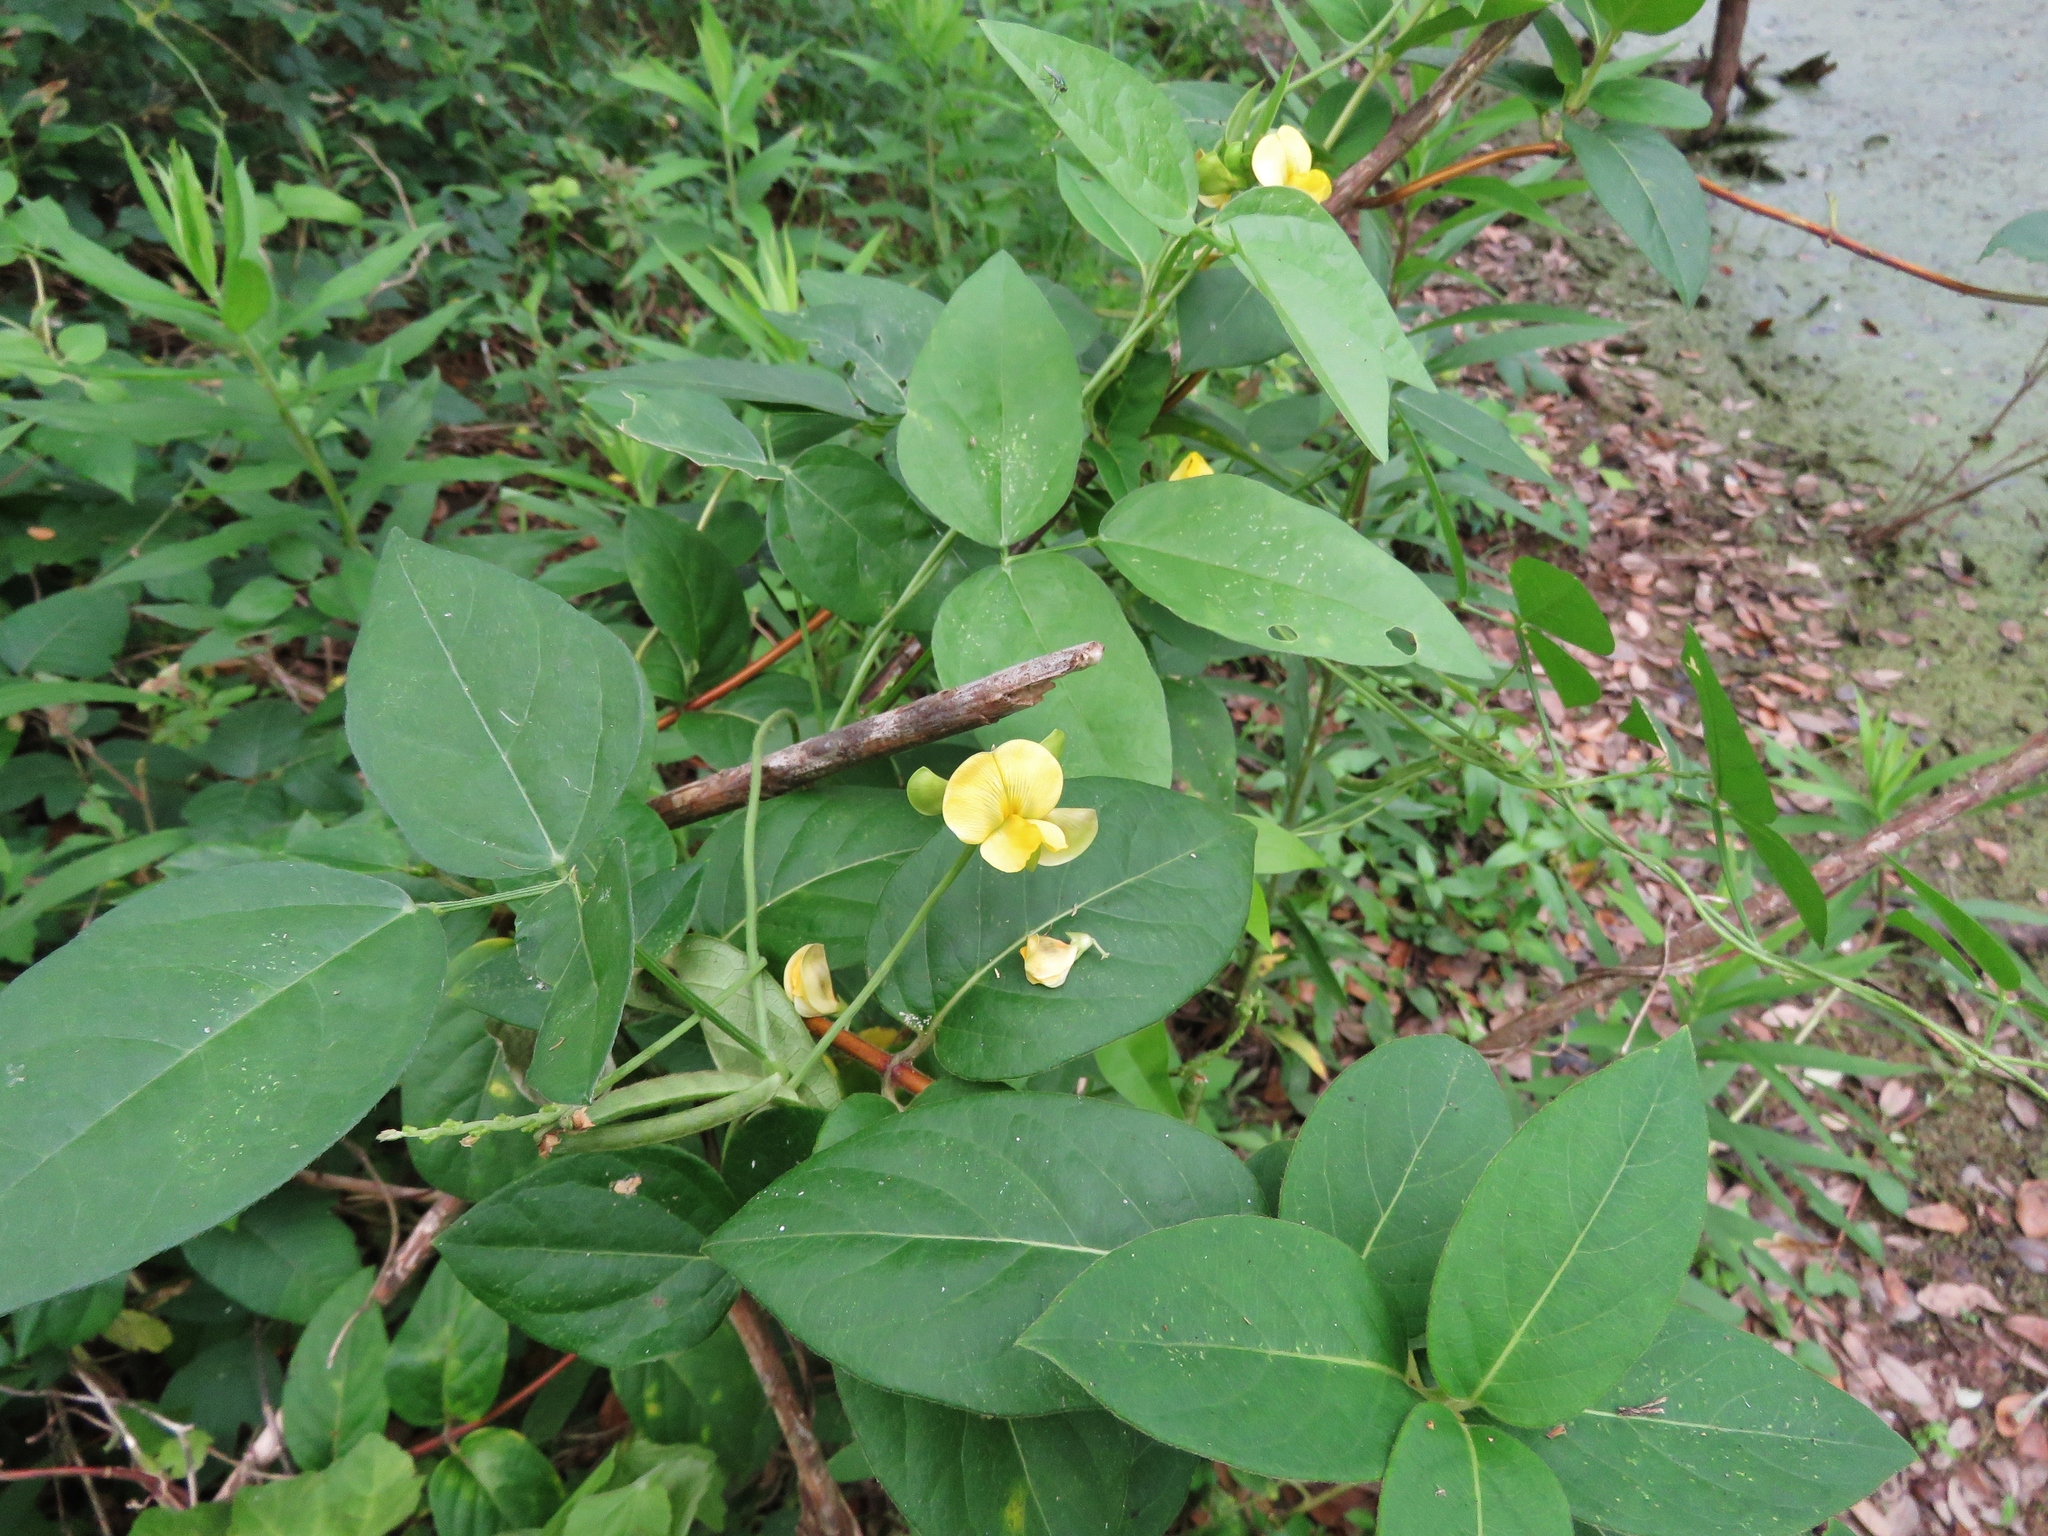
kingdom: Plantae
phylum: Tracheophyta
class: Magnoliopsida
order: Fabales
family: Fabaceae
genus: Vigna
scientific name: Vigna luteola
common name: Hairypod cowpea
